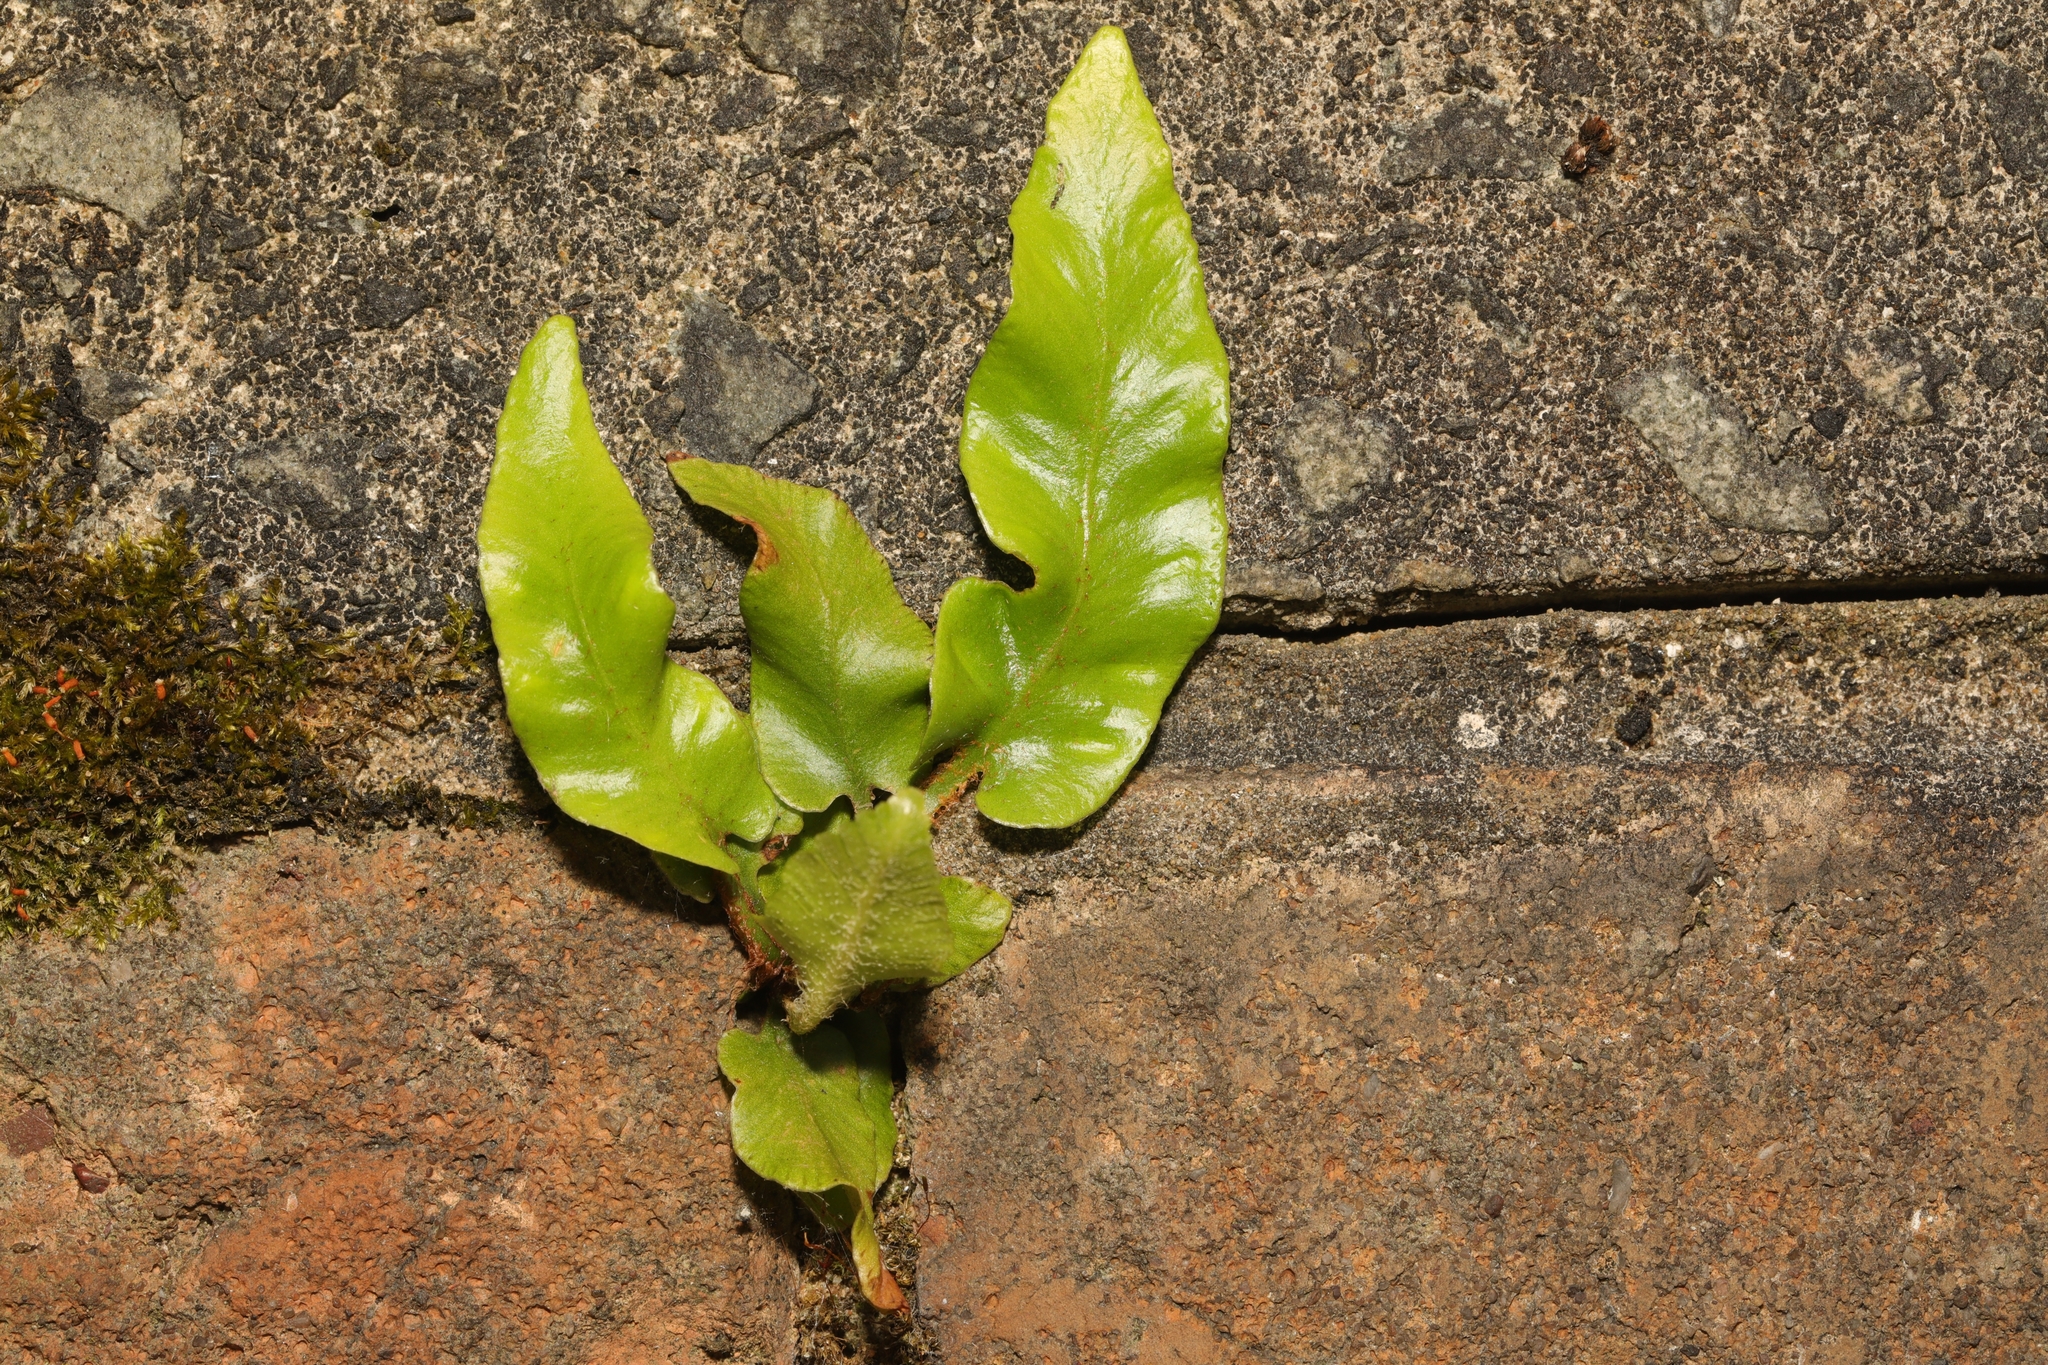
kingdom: Plantae
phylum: Tracheophyta
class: Polypodiopsida
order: Polypodiales
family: Aspleniaceae
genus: Asplenium
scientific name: Asplenium scolopendrium
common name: Hart's-tongue fern
